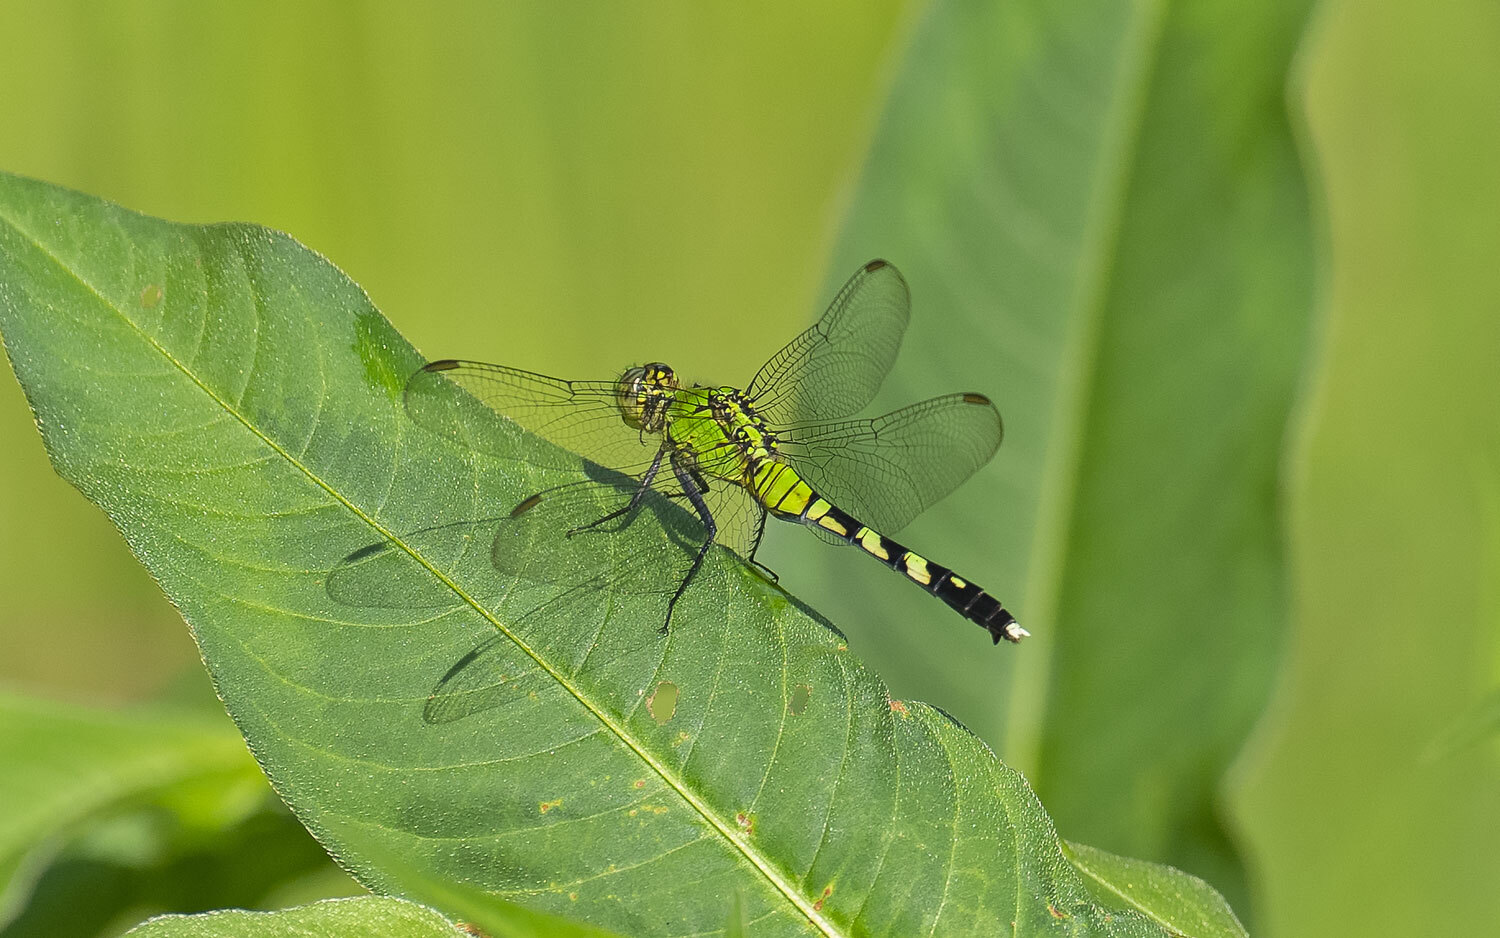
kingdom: Animalia
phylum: Arthropoda
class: Insecta
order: Odonata
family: Libellulidae
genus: Erythemis
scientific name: Erythemis simplicicollis
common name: Eastern pondhawk
